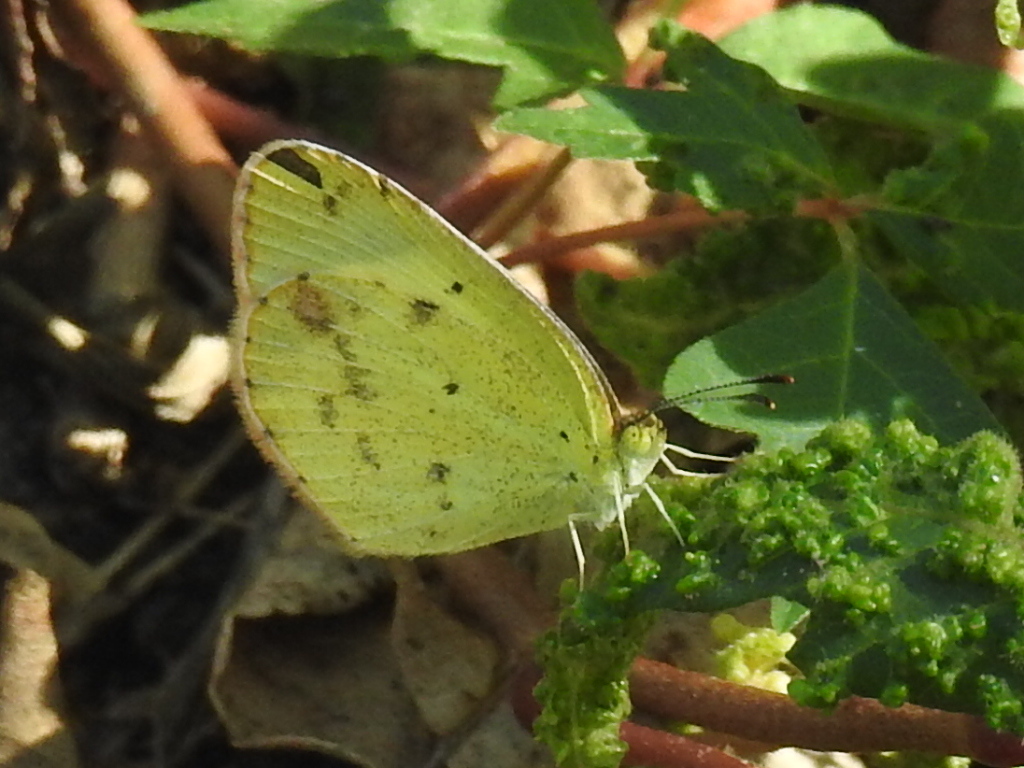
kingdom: Animalia
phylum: Arthropoda
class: Insecta
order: Lepidoptera
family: Pieridae
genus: Pyrisitia
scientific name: Pyrisitia lisa
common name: Little yellow
